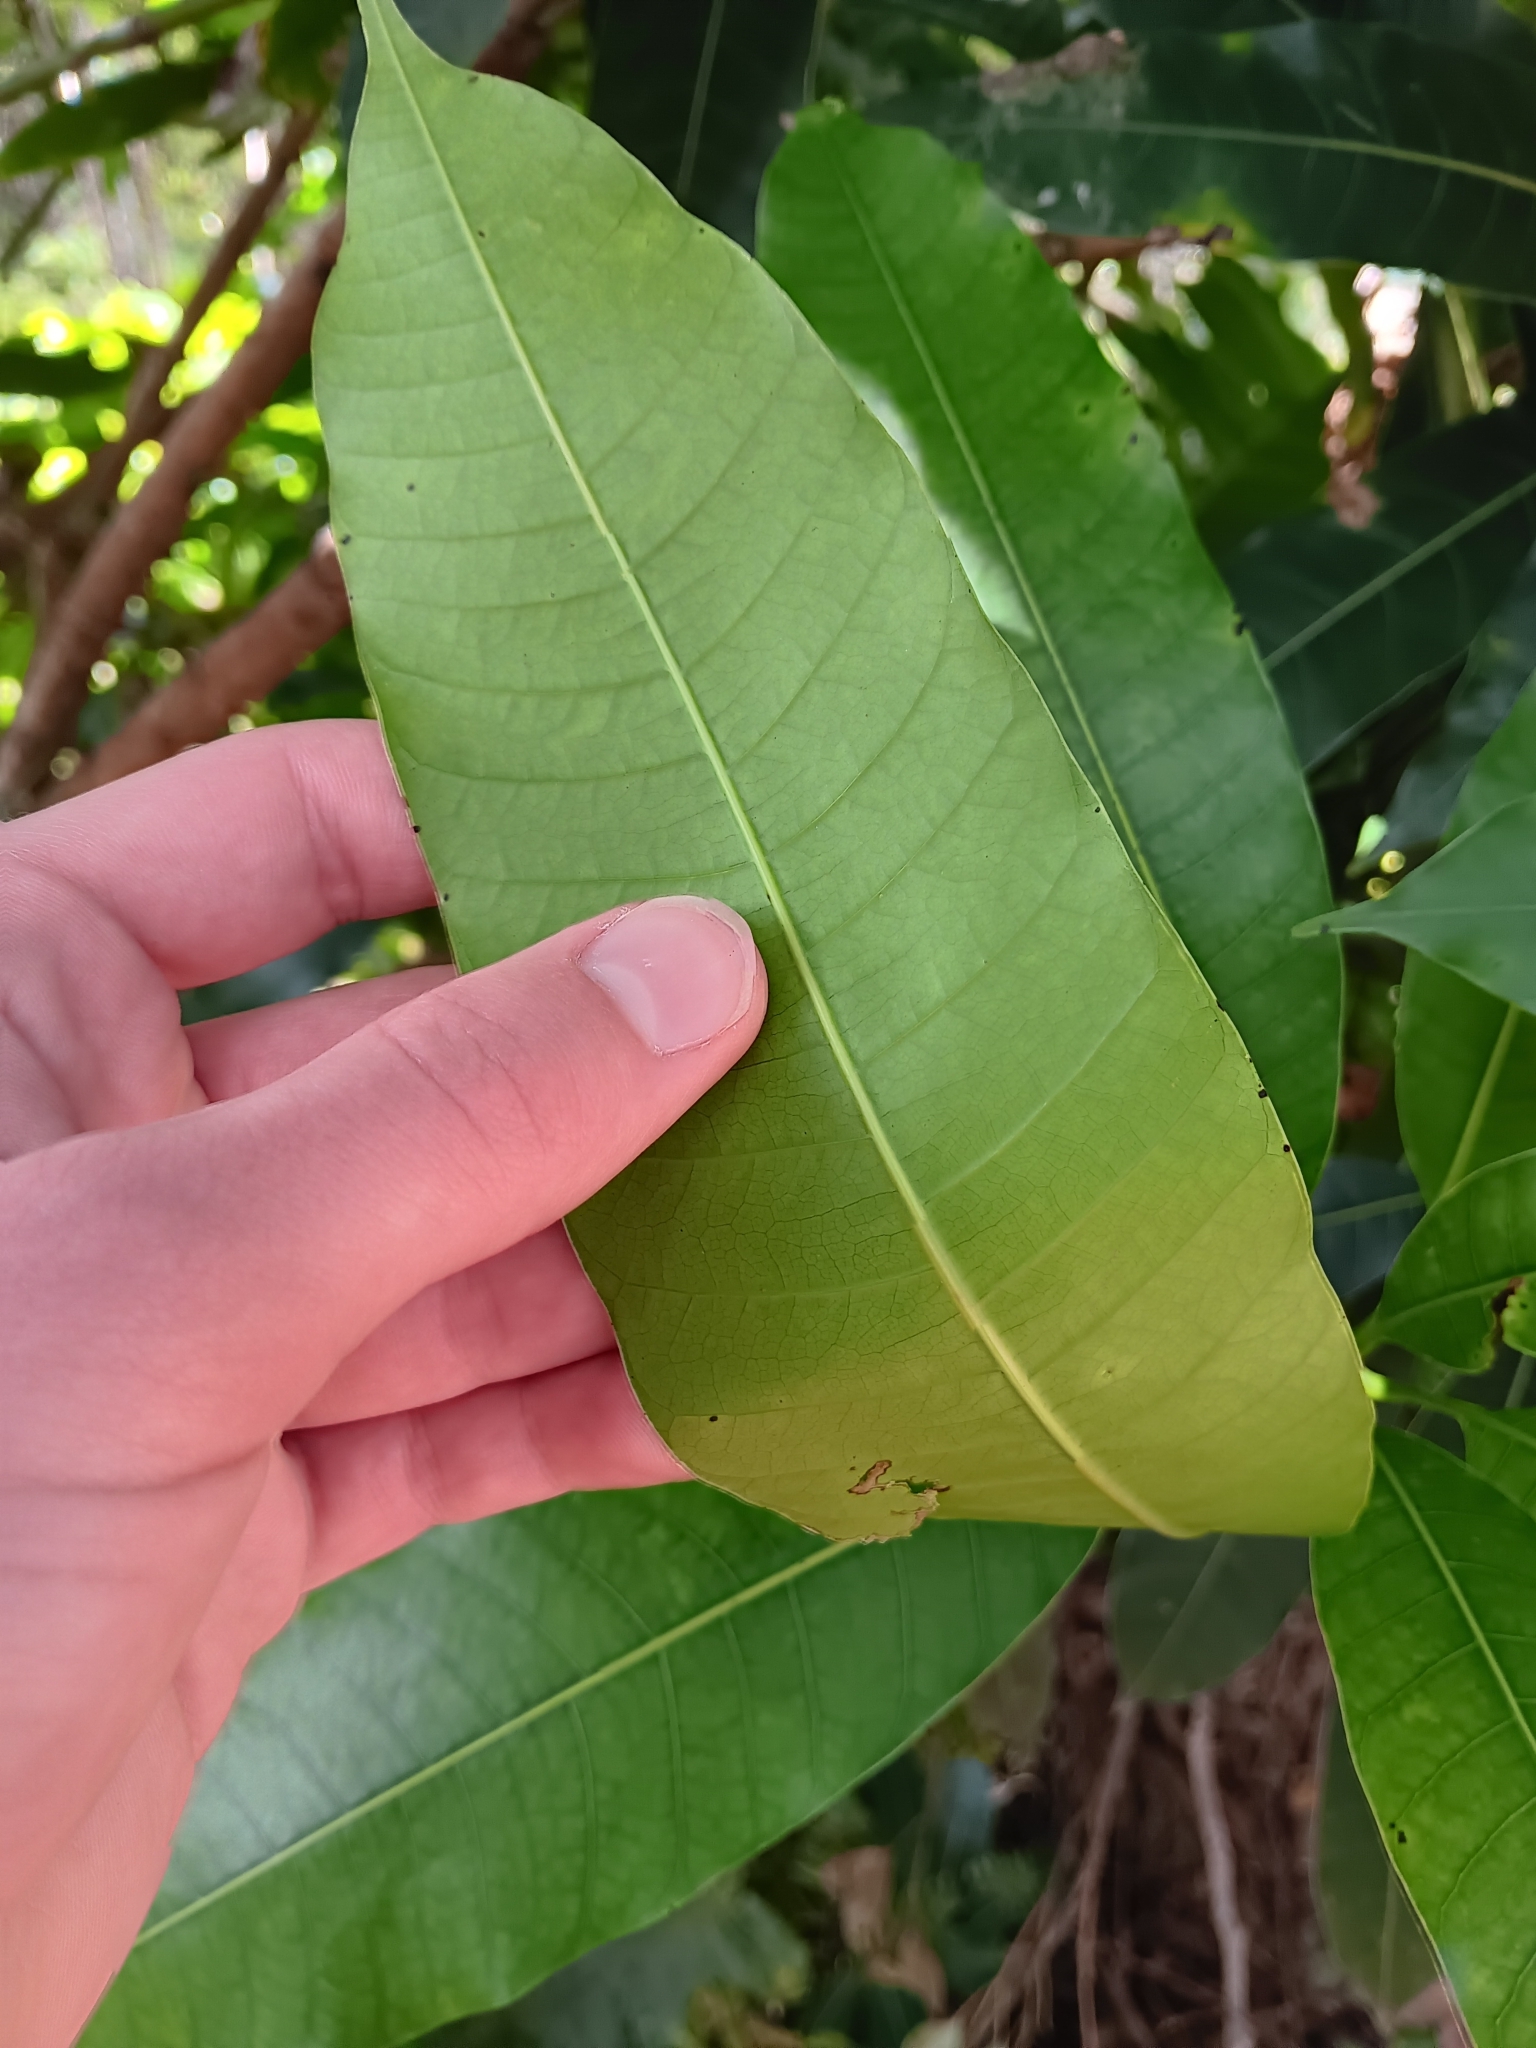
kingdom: Plantae
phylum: Tracheophyta
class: Magnoliopsida
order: Sapindales
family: Anacardiaceae
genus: Mangifera
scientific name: Mangifera indica
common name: Mango
